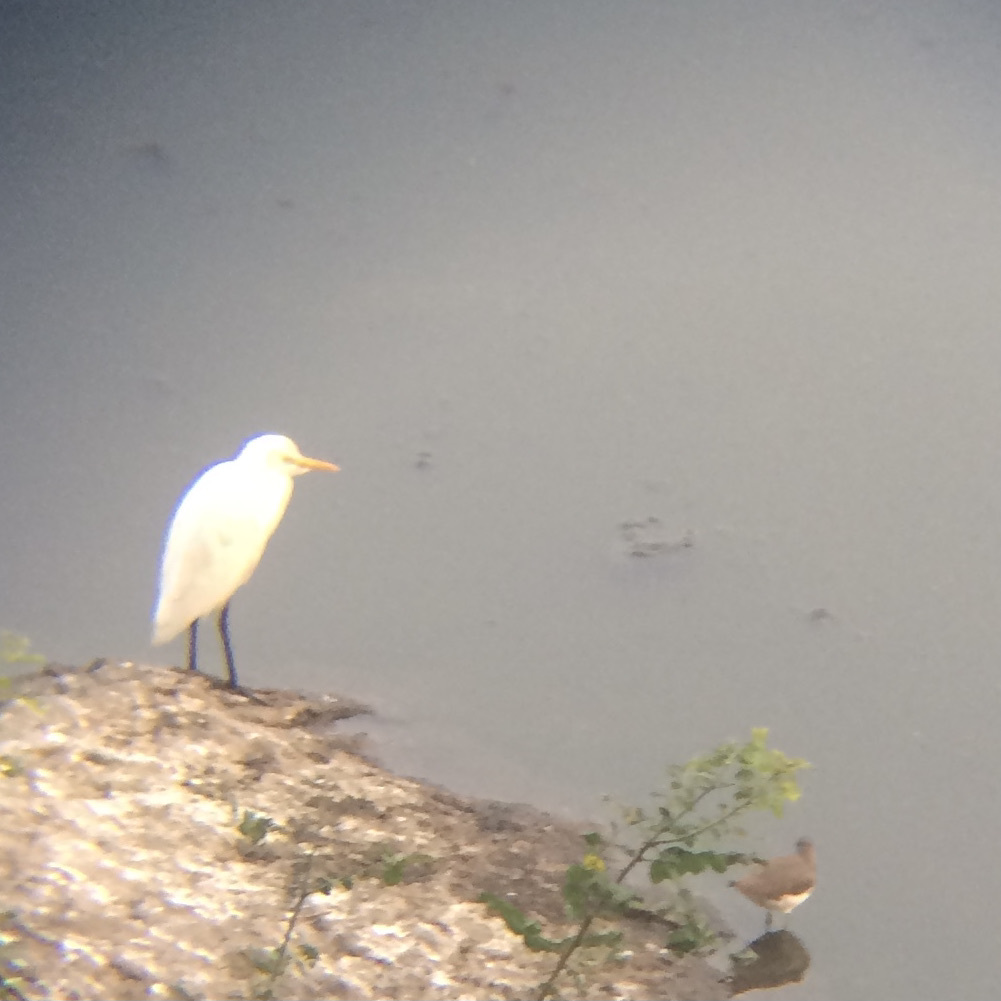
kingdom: Animalia
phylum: Chordata
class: Aves
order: Pelecaniformes
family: Ardeidae
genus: Bubulcus
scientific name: Bubulcus coromandus
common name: Eastern cattle egret
